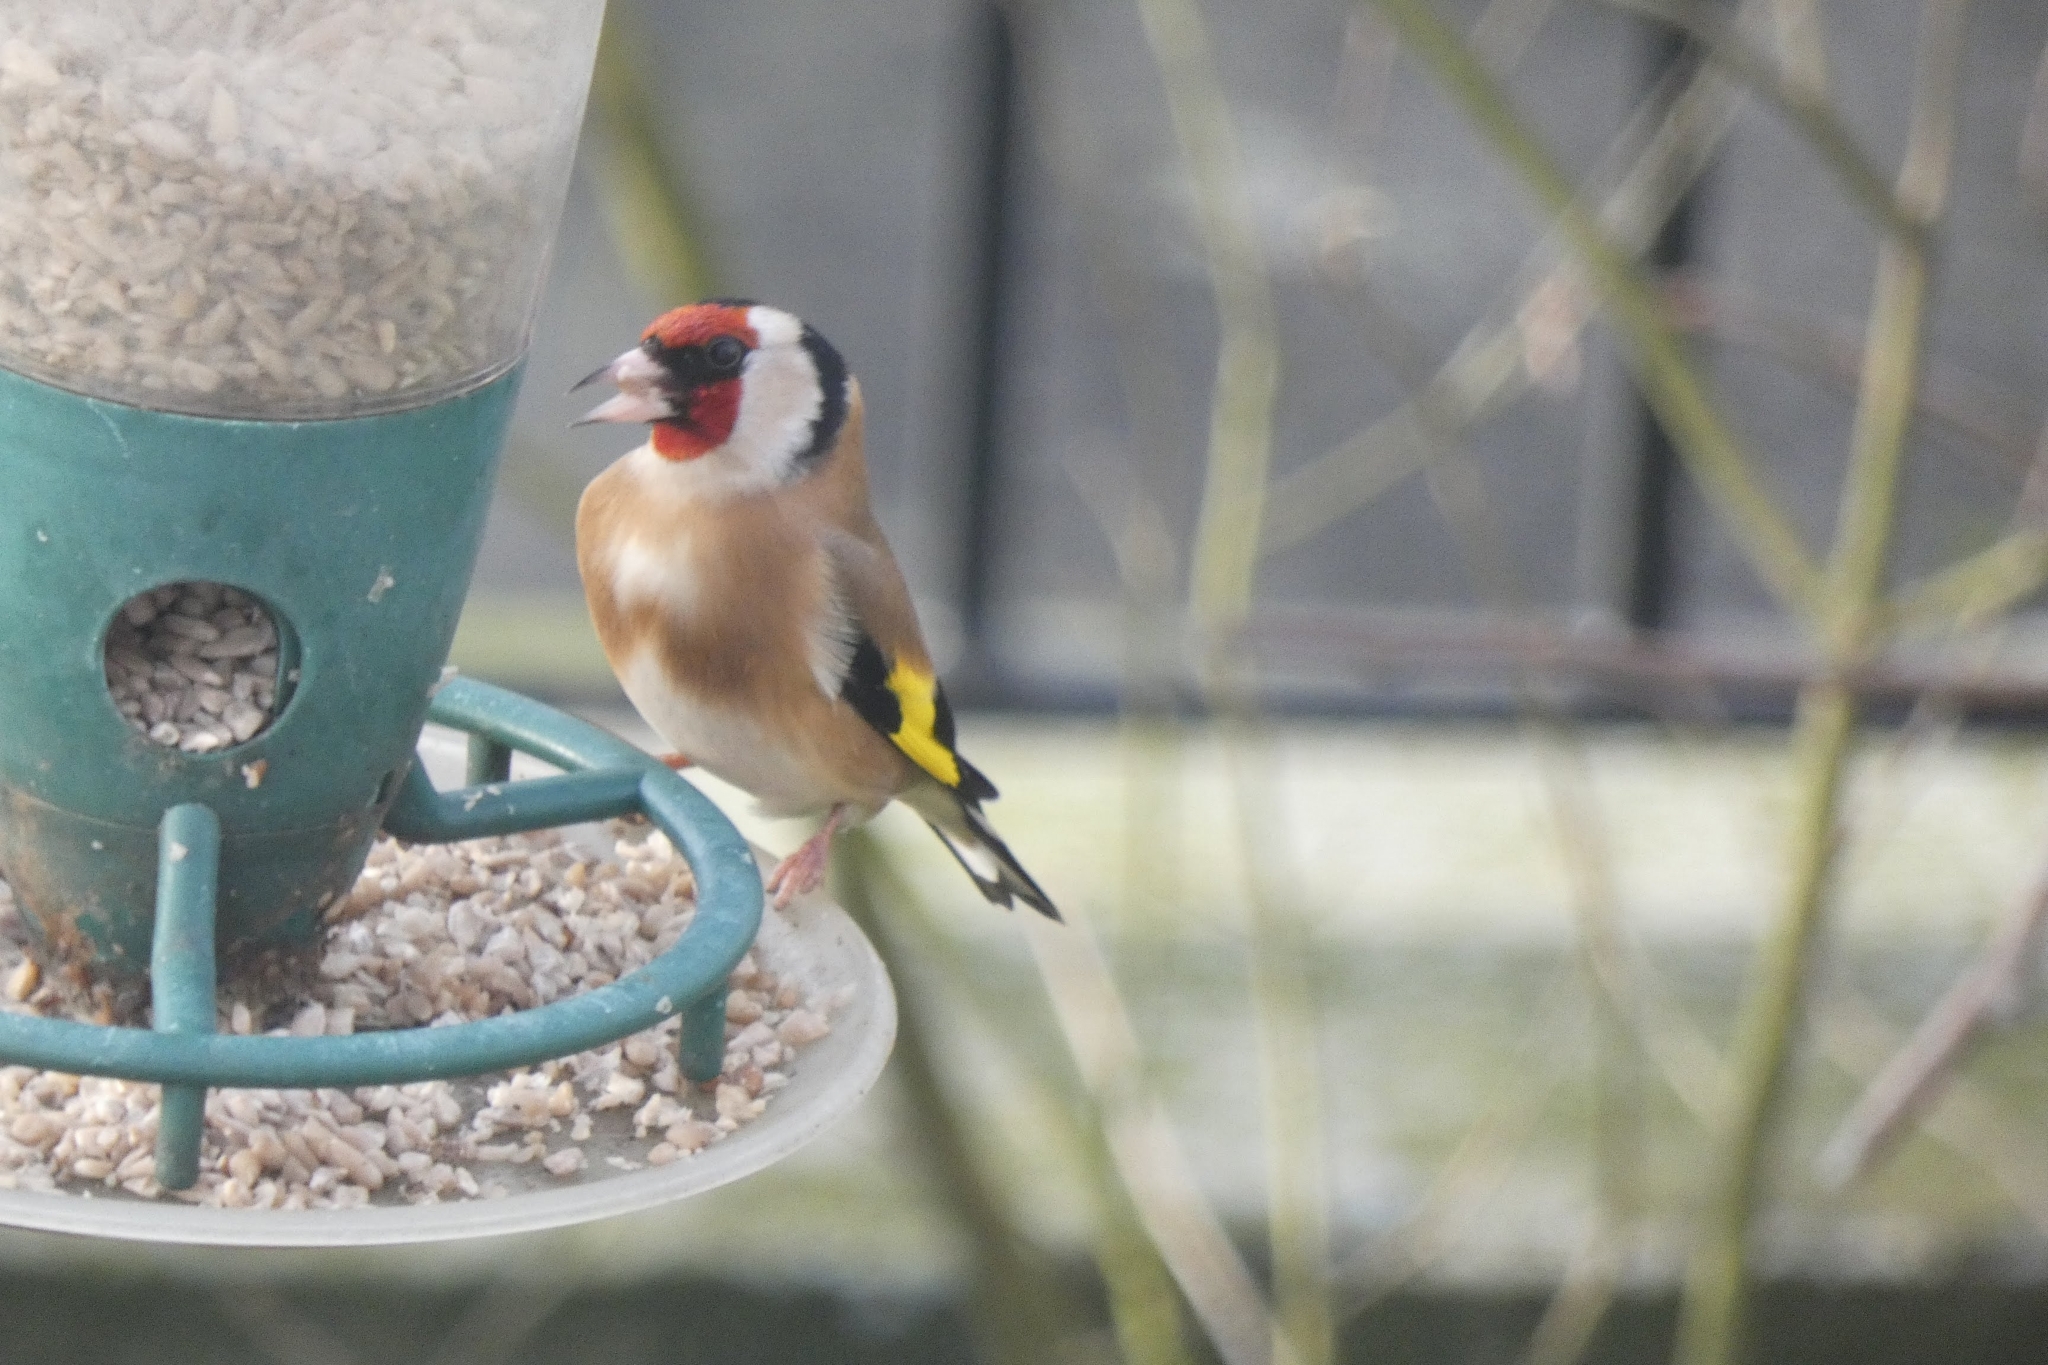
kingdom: Animalia
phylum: Chordata
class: Aves
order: Passeriformes
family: Fringillidae
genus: Carduelis
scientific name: Carduelis carduelis
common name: European goldfinch
